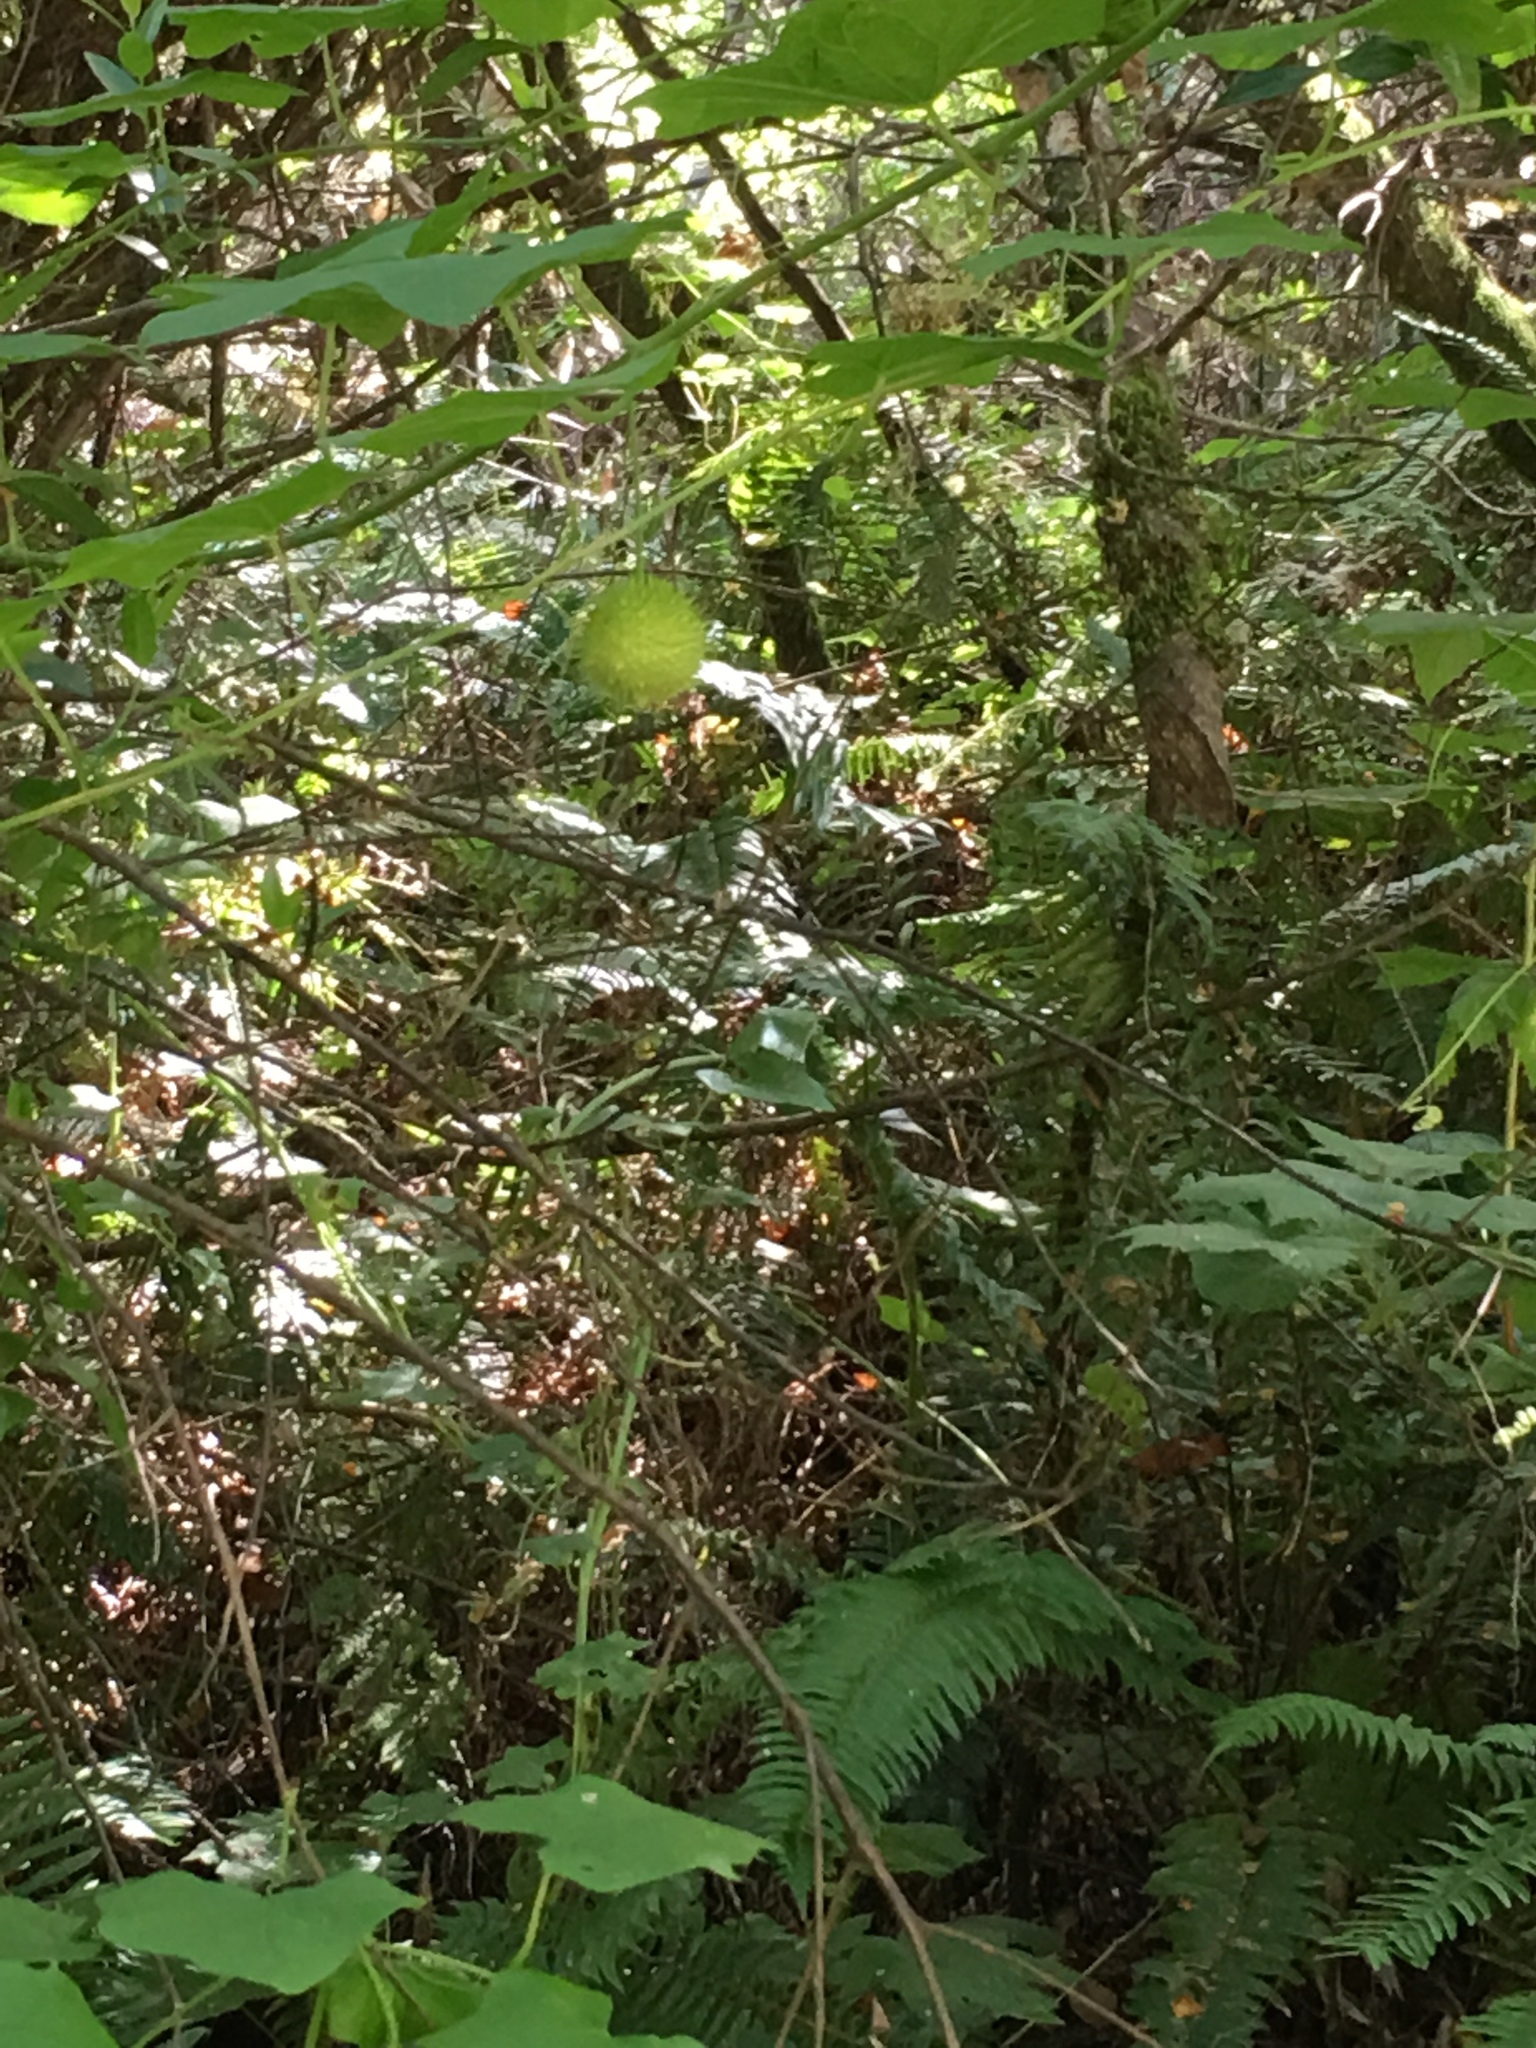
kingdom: Plantae
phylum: Tracheophyta
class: Magnoliopsida
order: Cucurbitales
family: Cucurbitaceae
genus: Marah
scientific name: Marah fabacea
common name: California manroot
